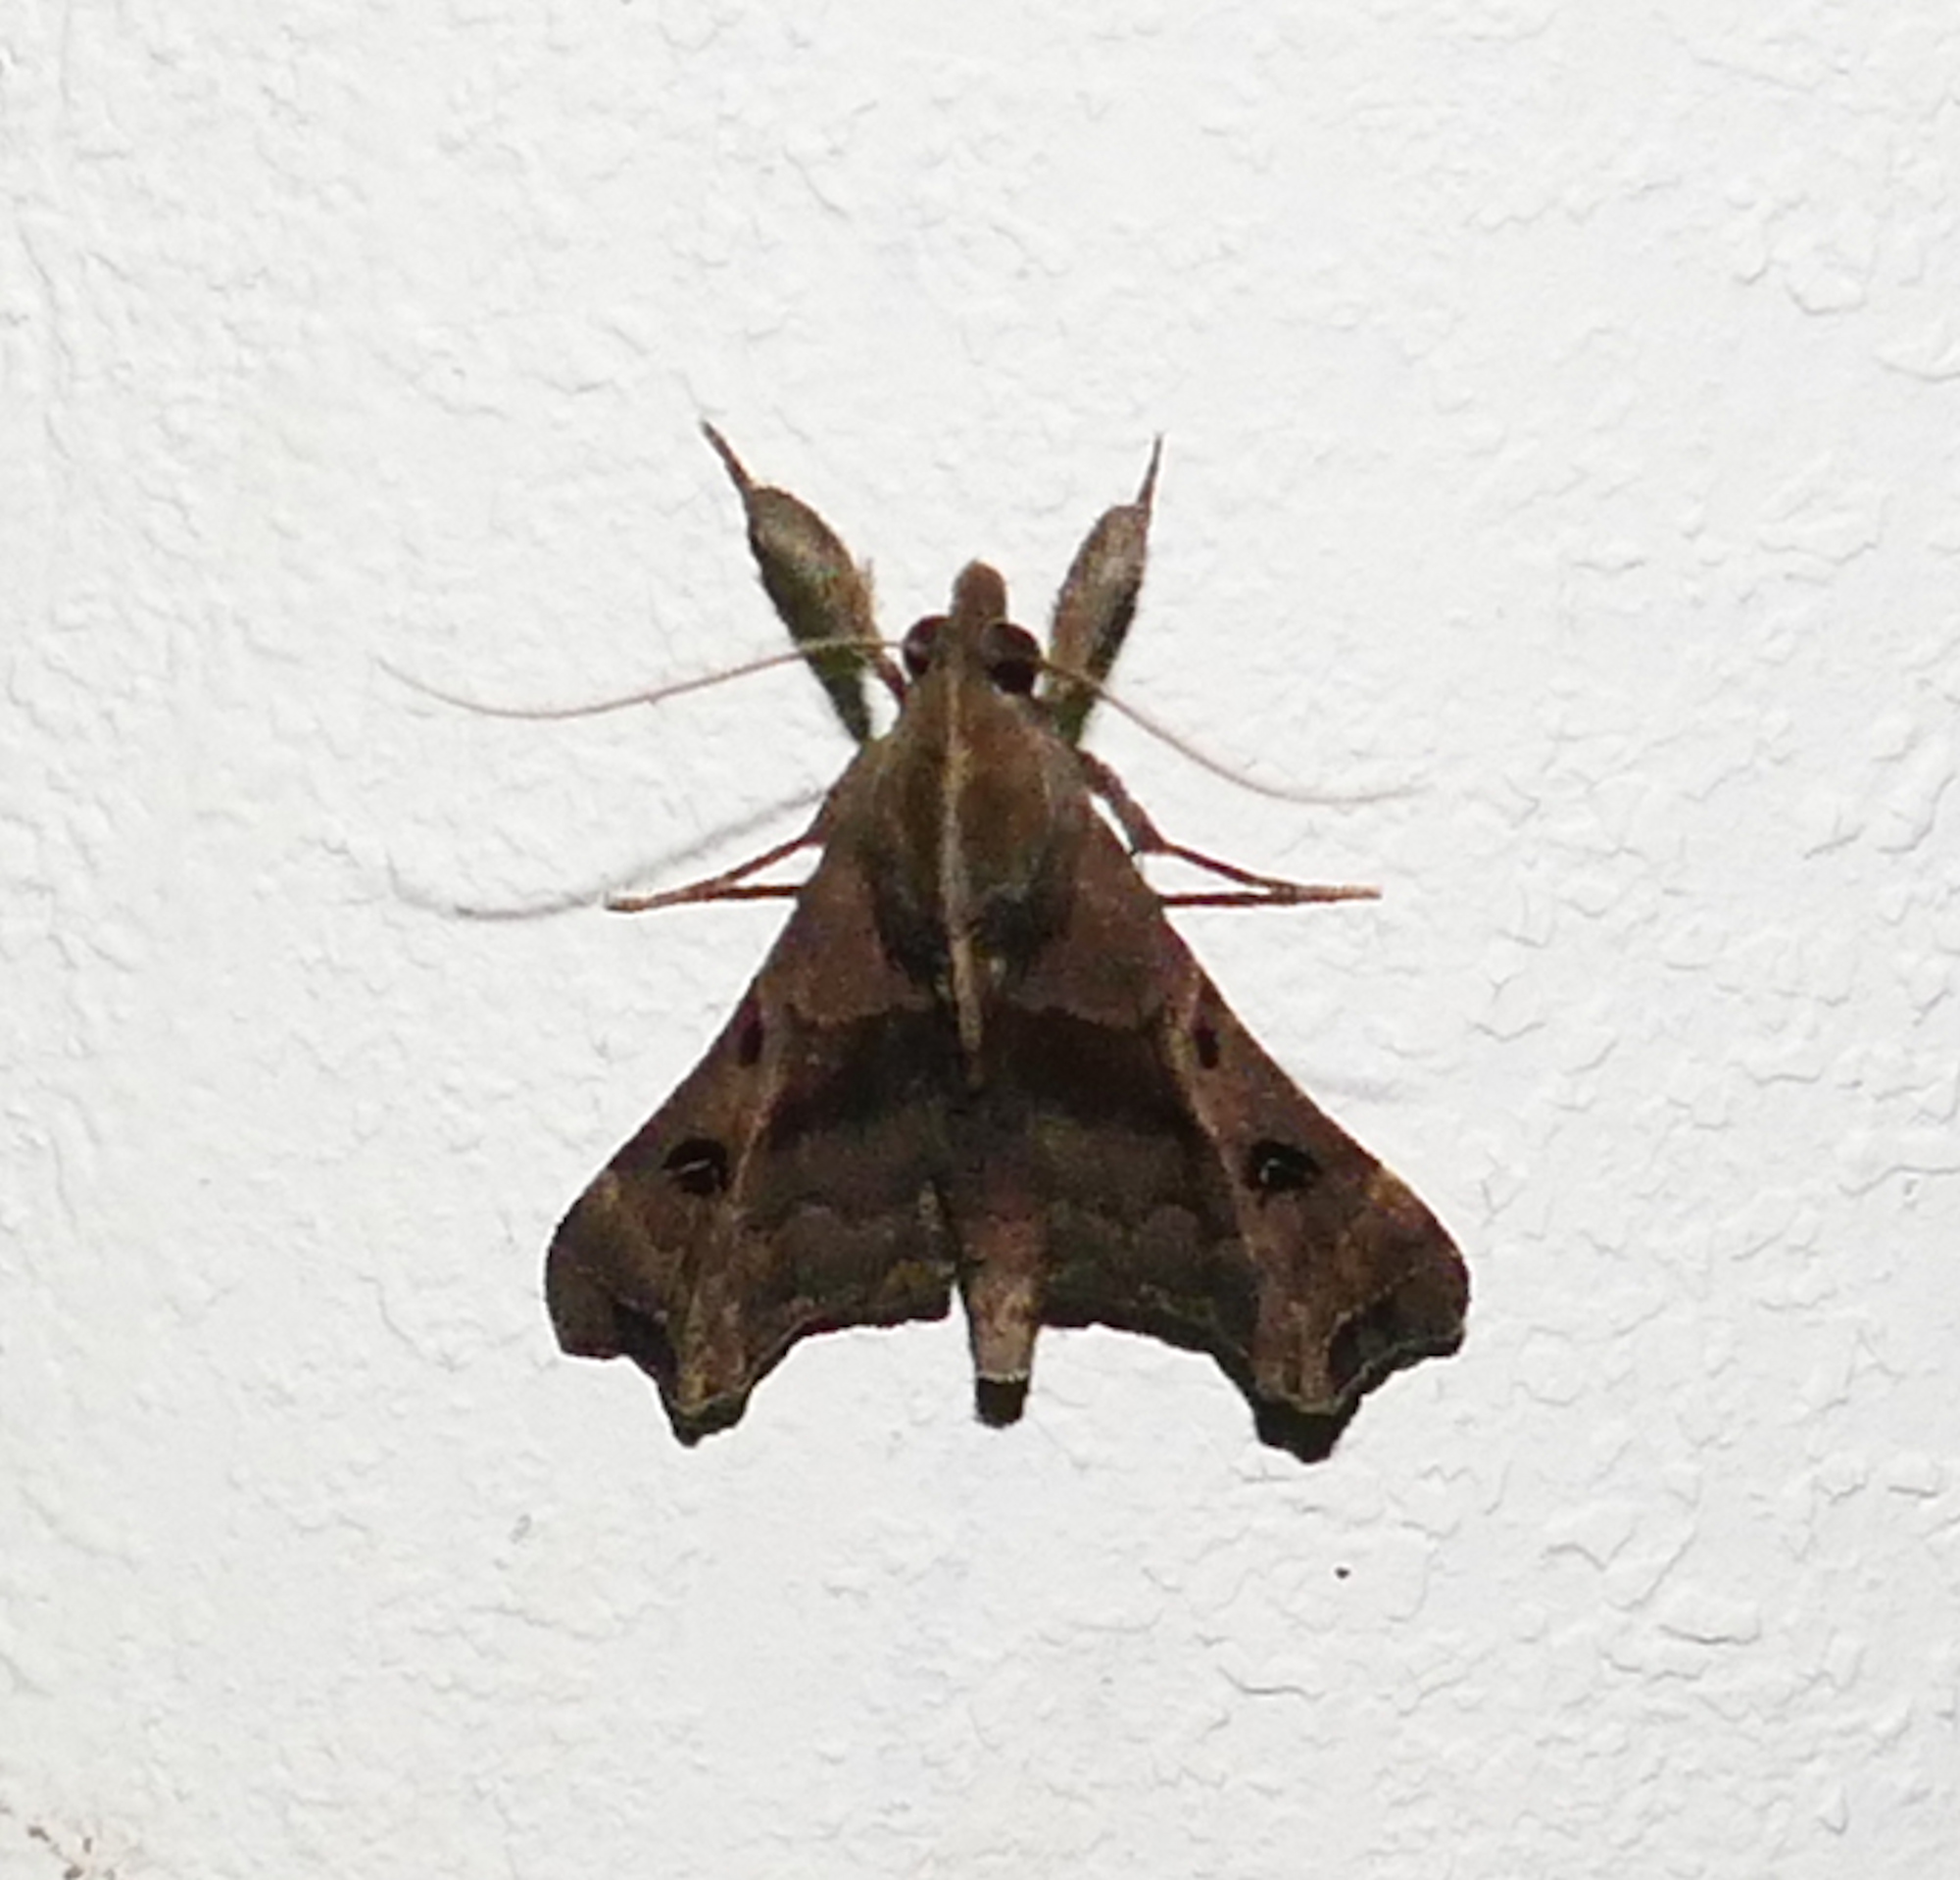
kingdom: Animalia
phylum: Arthropoda
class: Insecta
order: Lepidoptera
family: Erebidae
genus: Palthis
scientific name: Palthis asopialis
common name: Faint-spotted palthis moth
